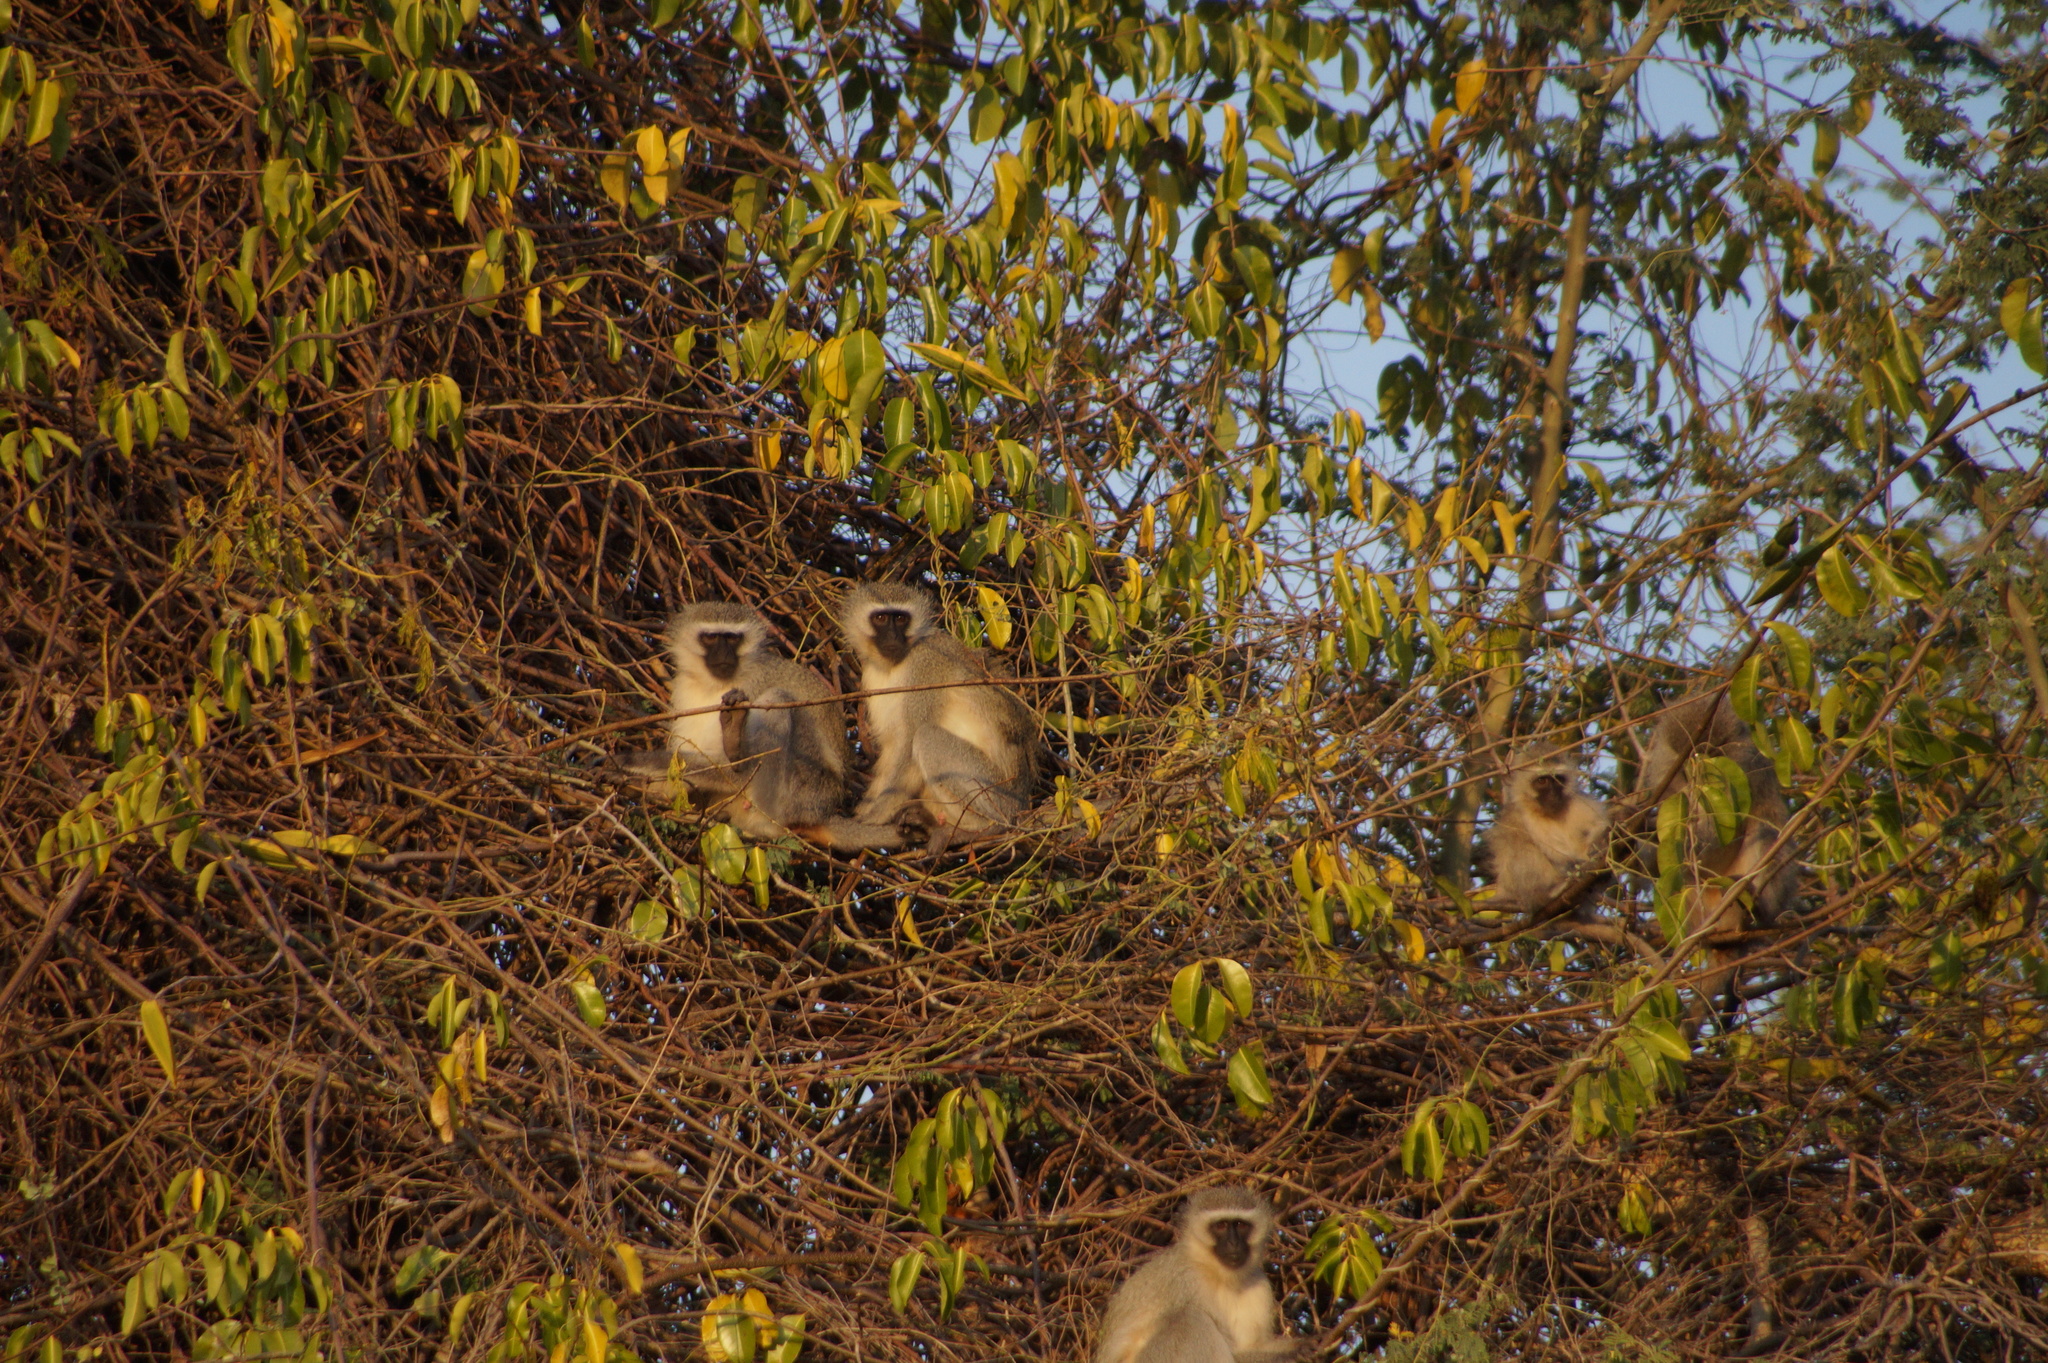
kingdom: Animalia
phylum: Chordata
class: Mammalia
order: Primates
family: Cercopithecidae
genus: Chlorocebus
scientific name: Chlorocebus pygerythrus
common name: Vervet monkey
